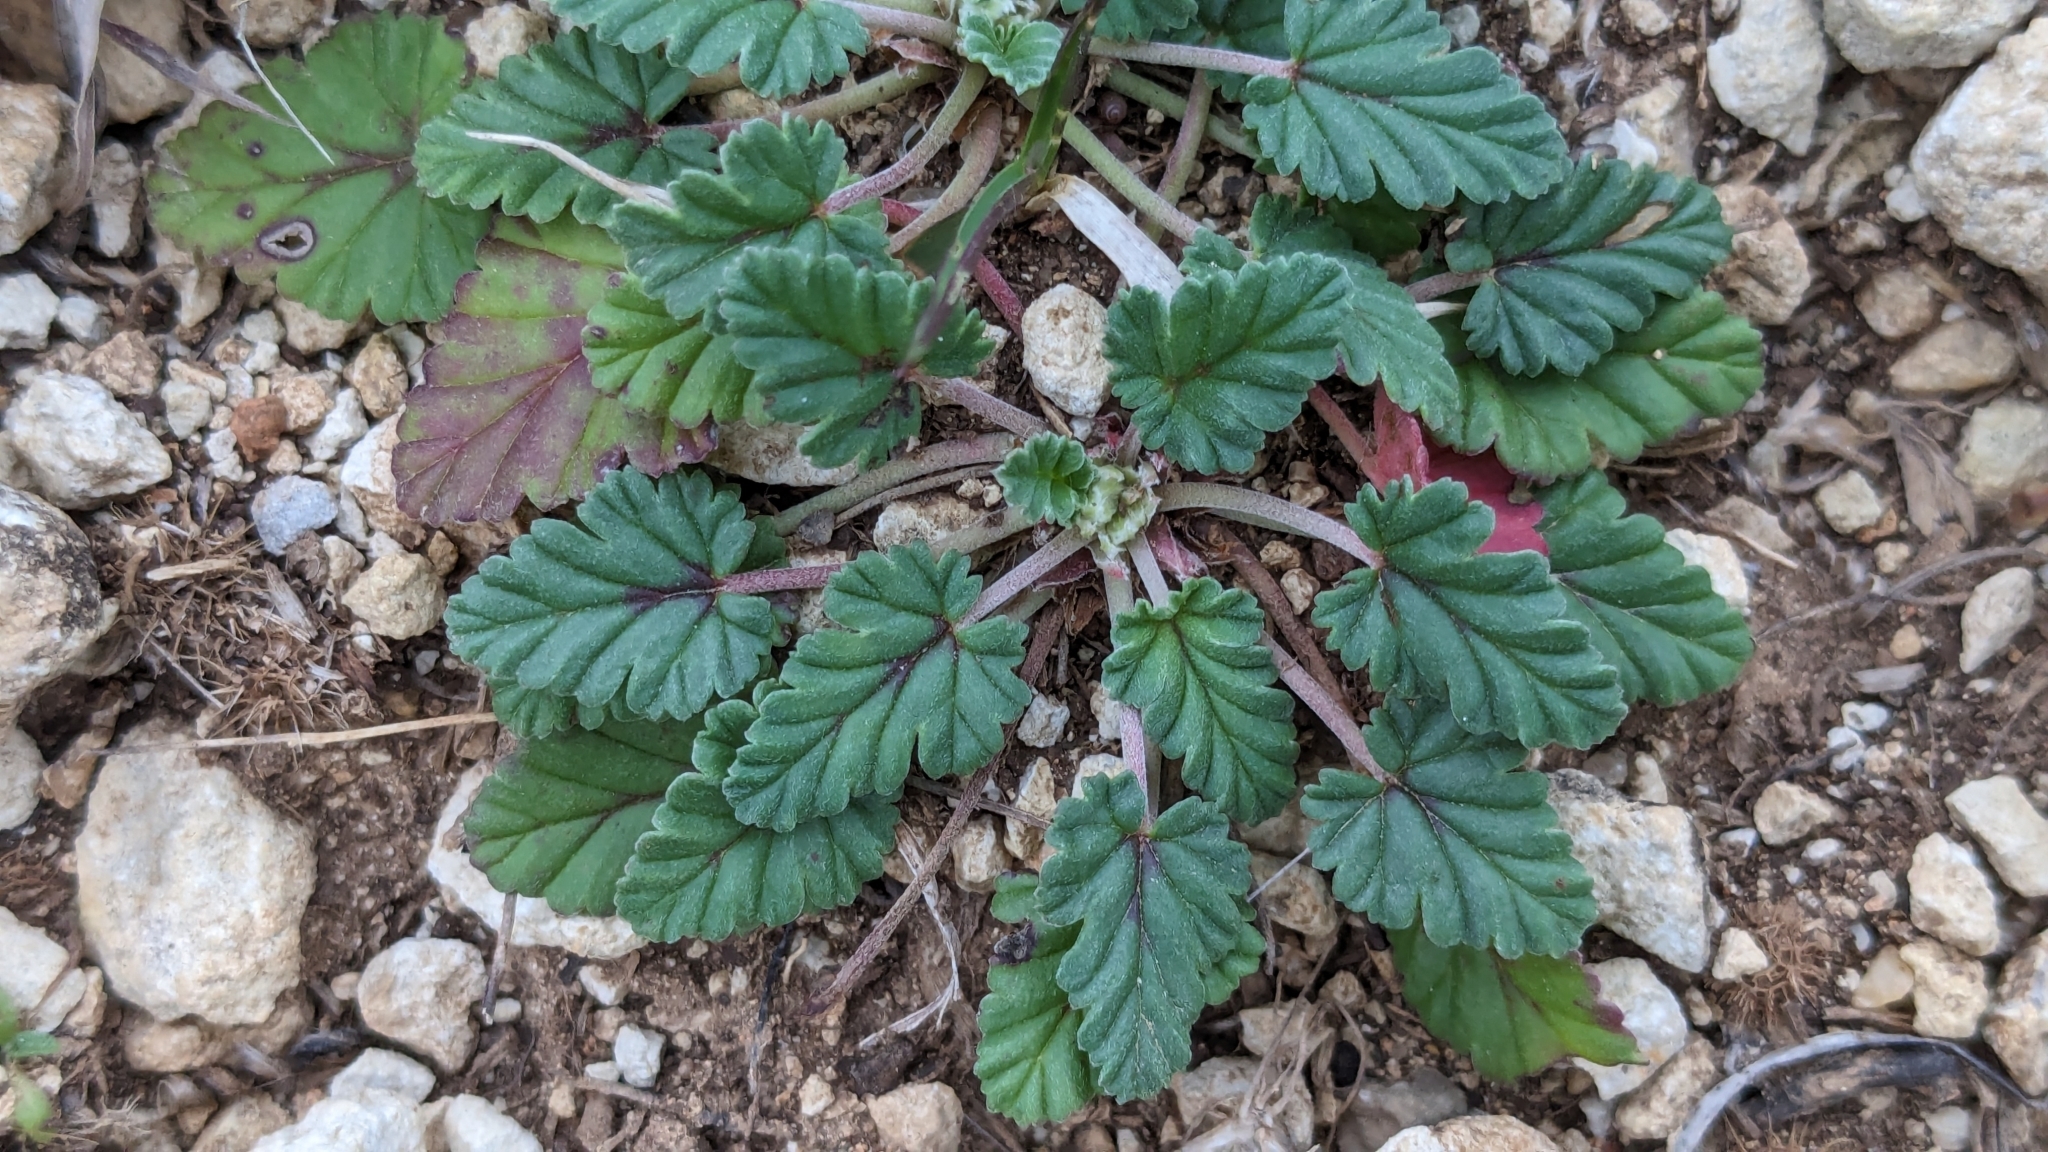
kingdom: Plantae
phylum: Tracheophyta
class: Magnoliopsida
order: Geraniales
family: Geraniaceae
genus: Erodium
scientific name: Erodium texanum
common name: Texas stork's-bill
